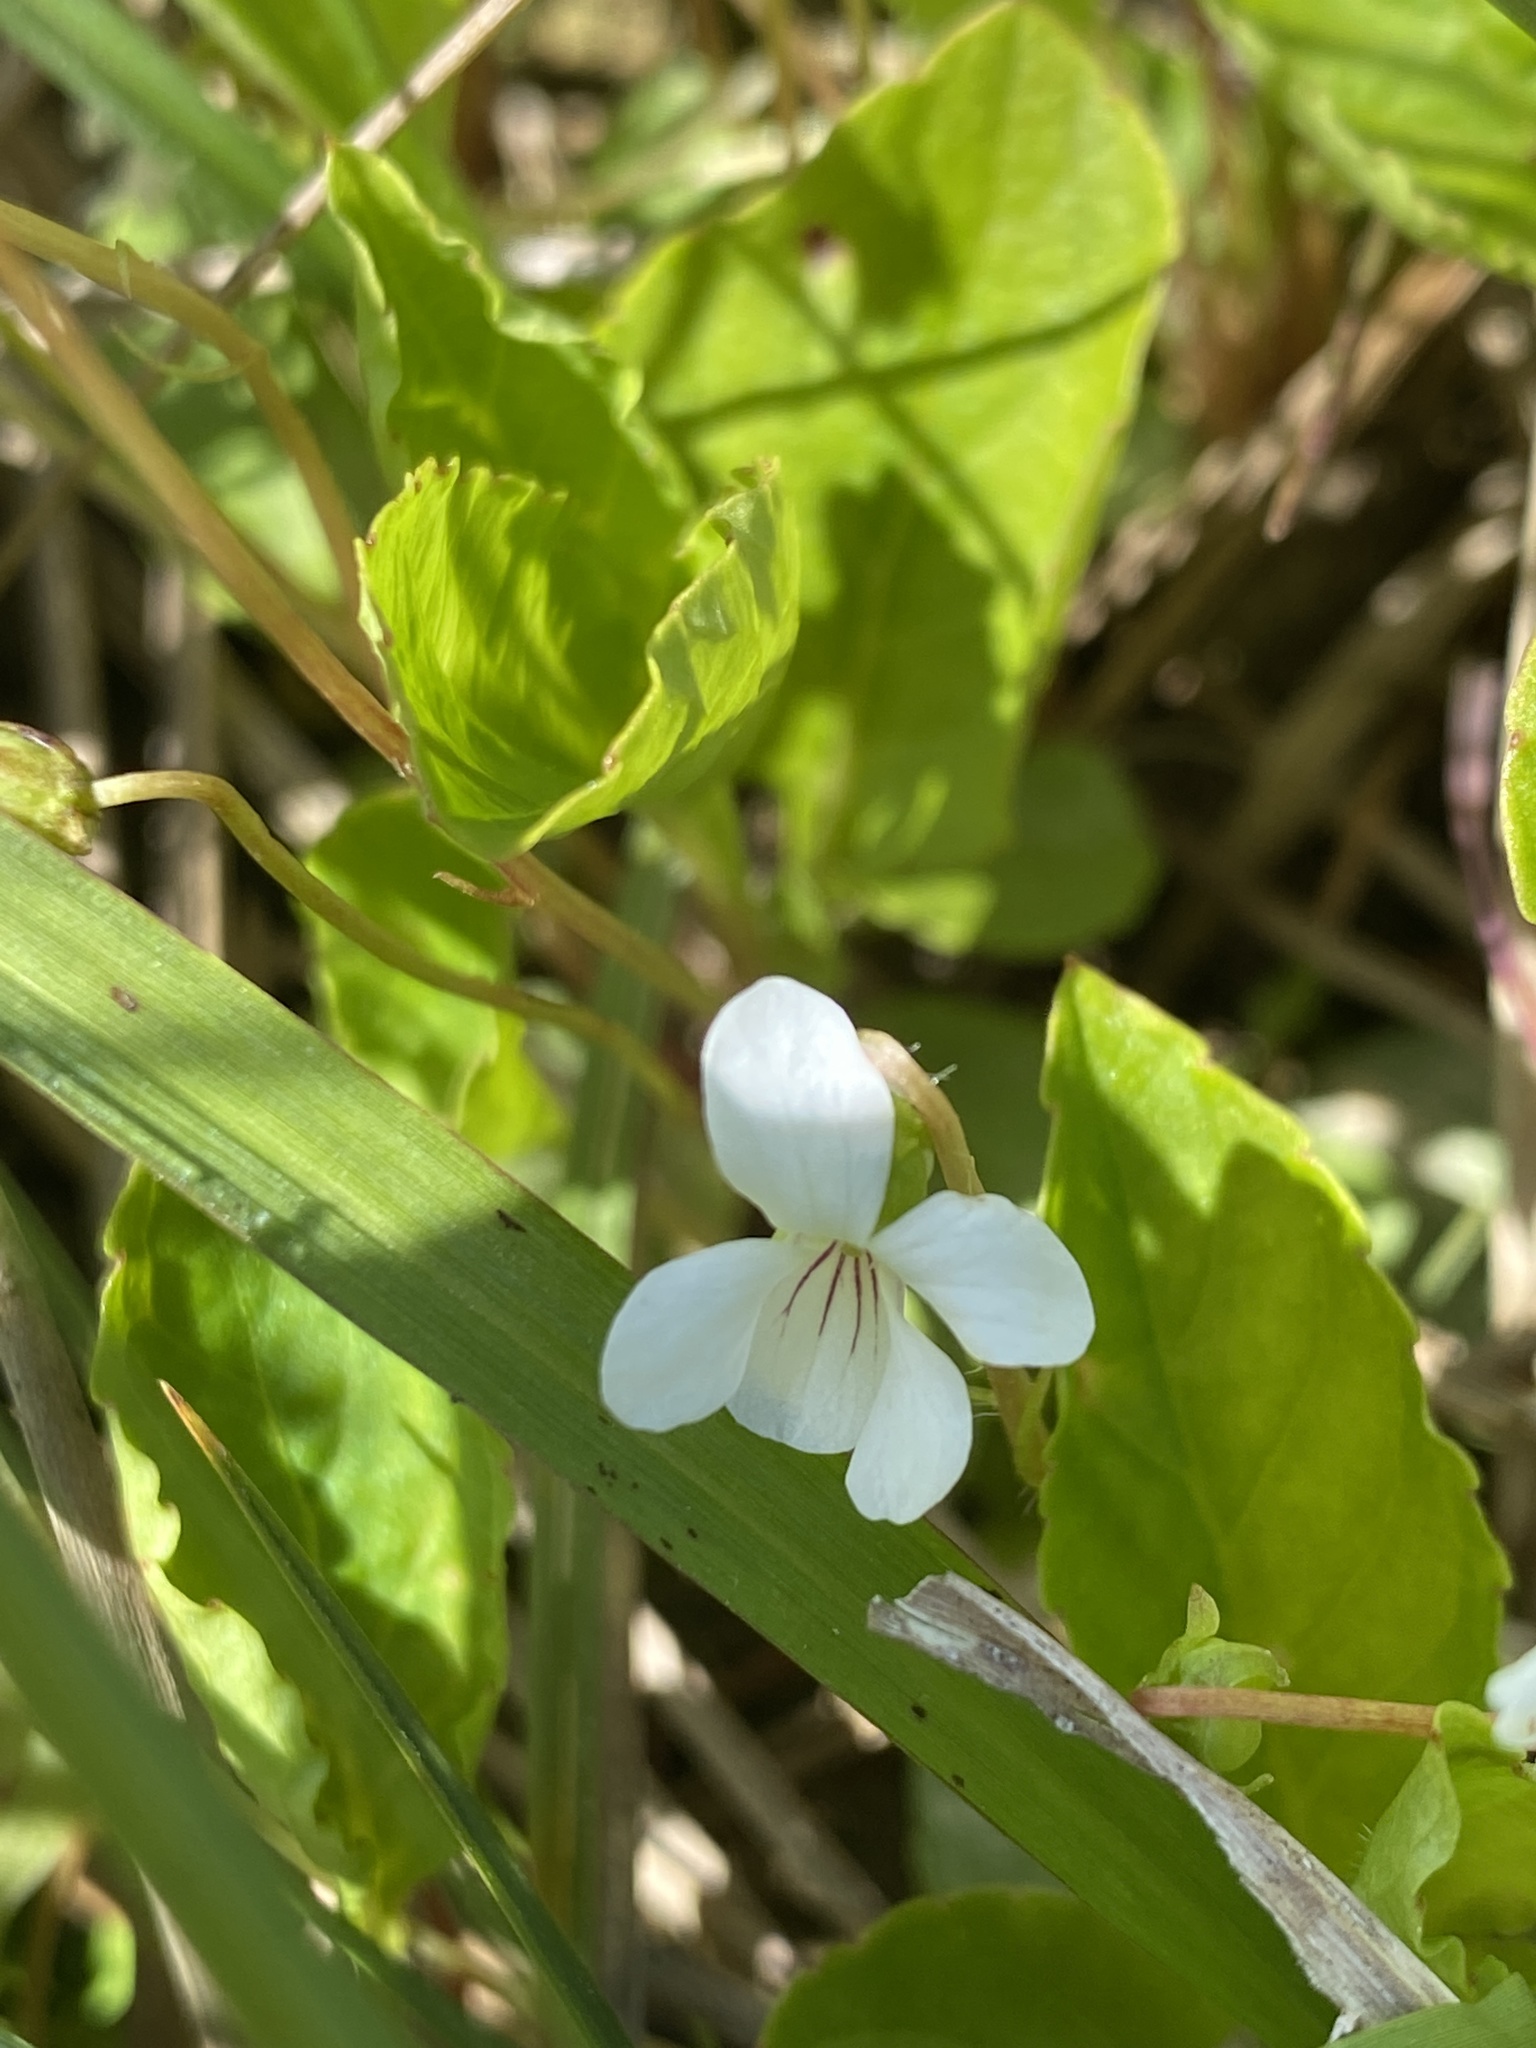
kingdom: Plantae
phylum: Tracheophyta
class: Magnoliopsida
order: Malpighiales
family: Violaceae
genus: Viola
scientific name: Viola primulifolia
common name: Primrose-leaf violet
